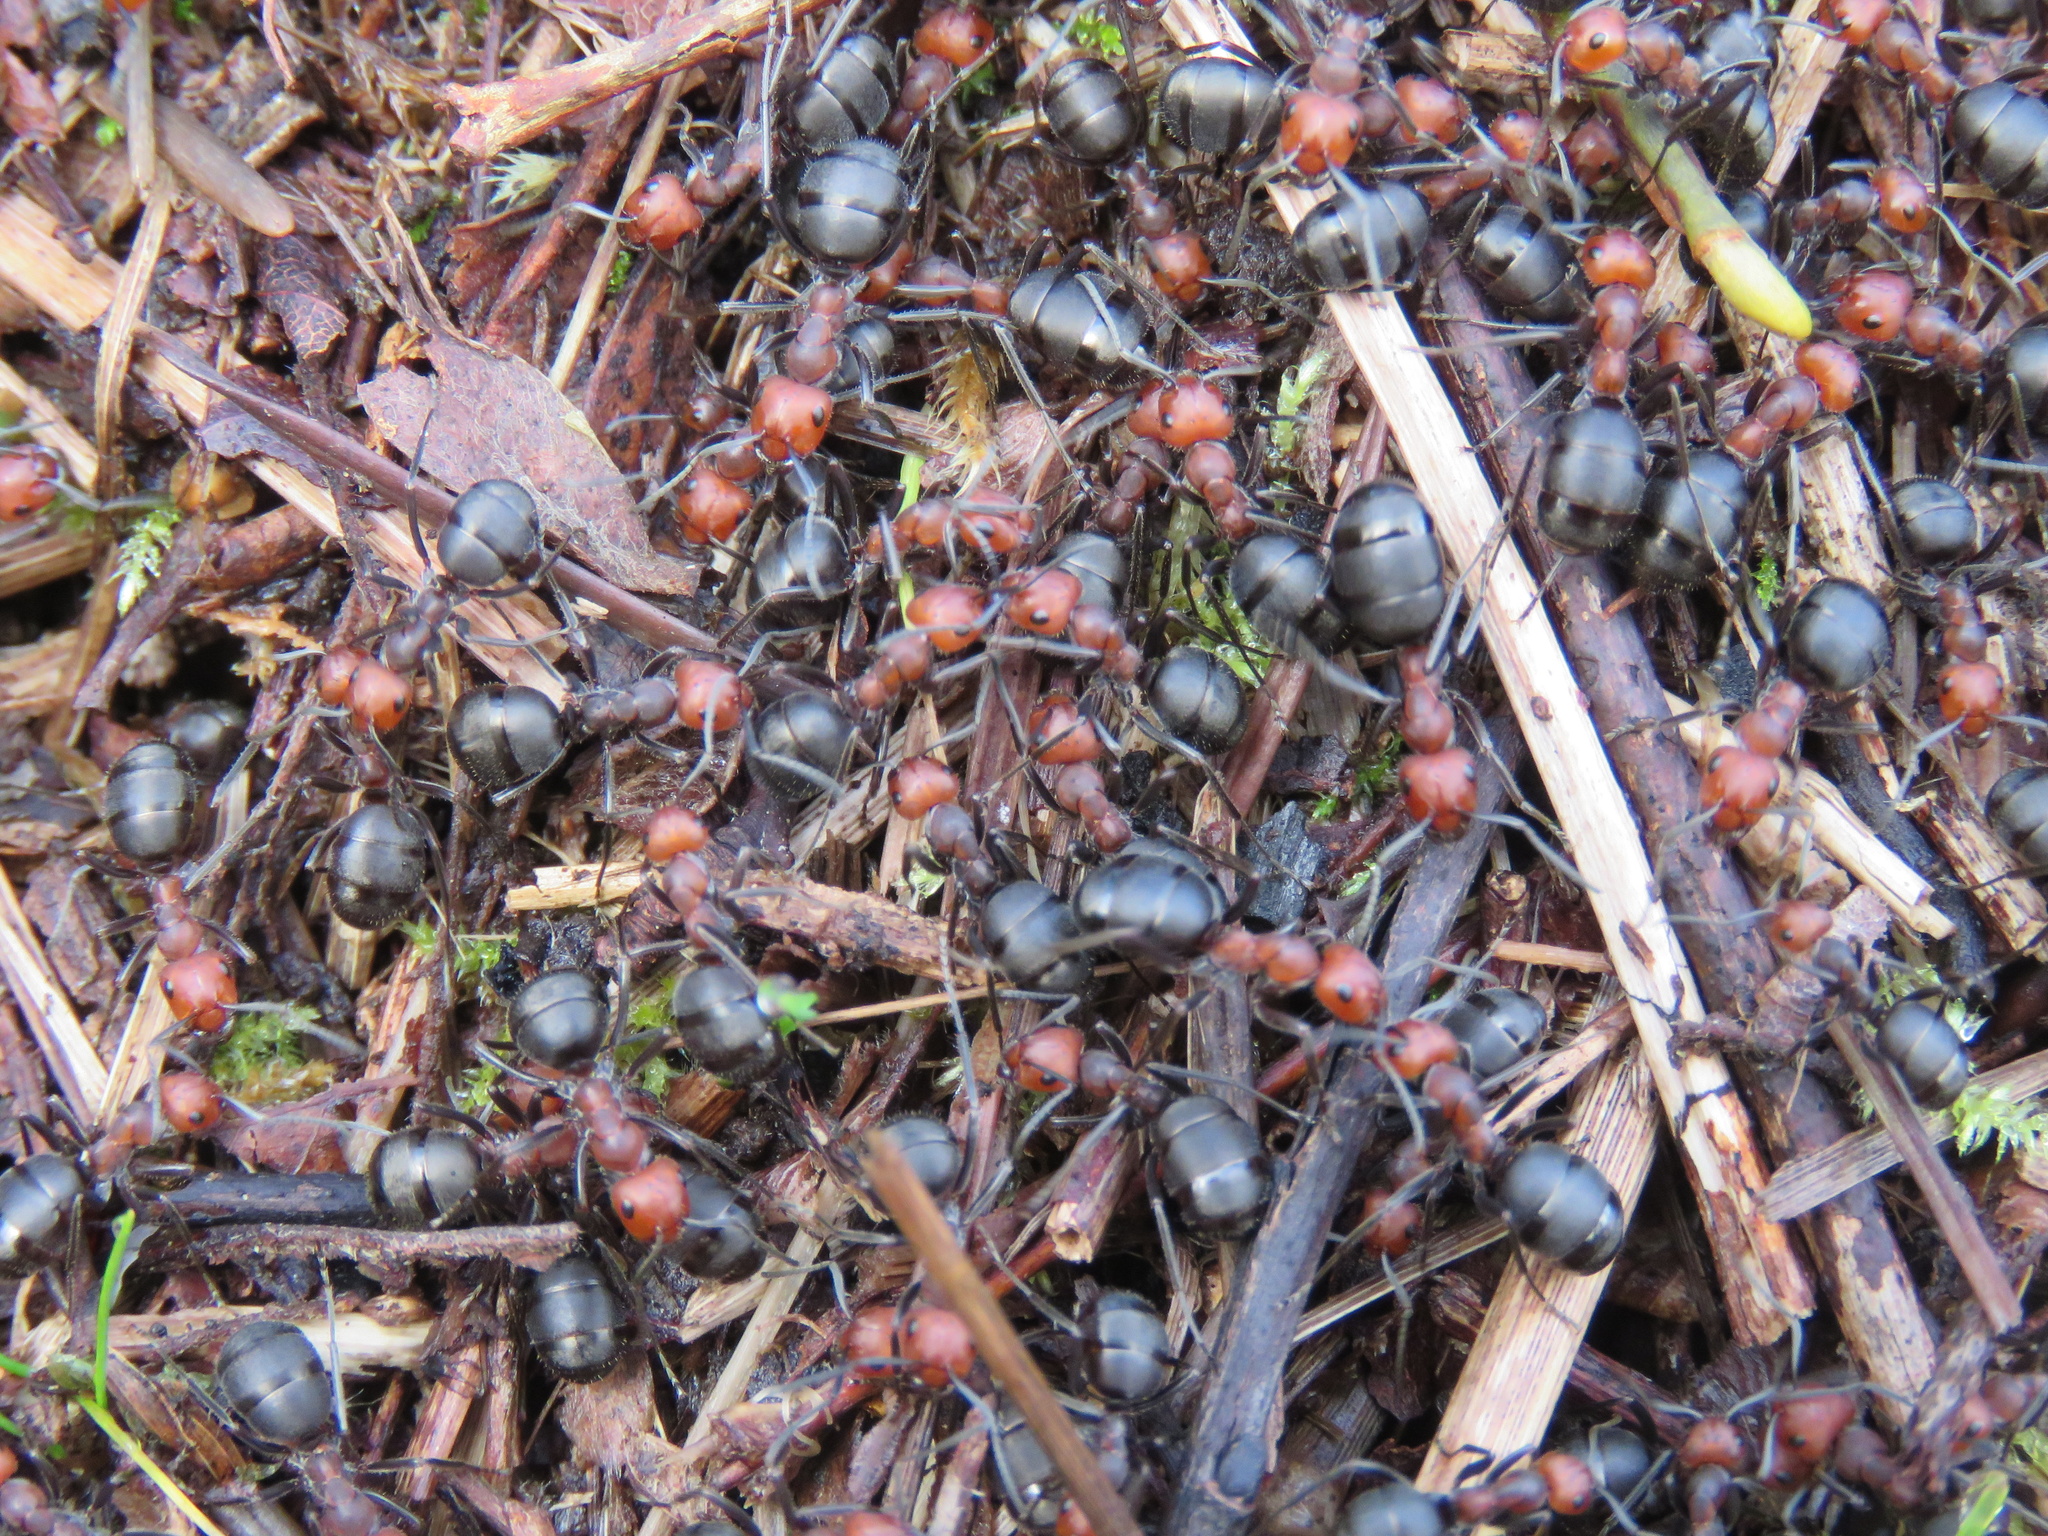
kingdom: Animalia
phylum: Arthropoda
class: Insecta
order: Hymenoptera
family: Formicidae
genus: Formica
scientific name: Formica obscuripes
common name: Western thatching ant
